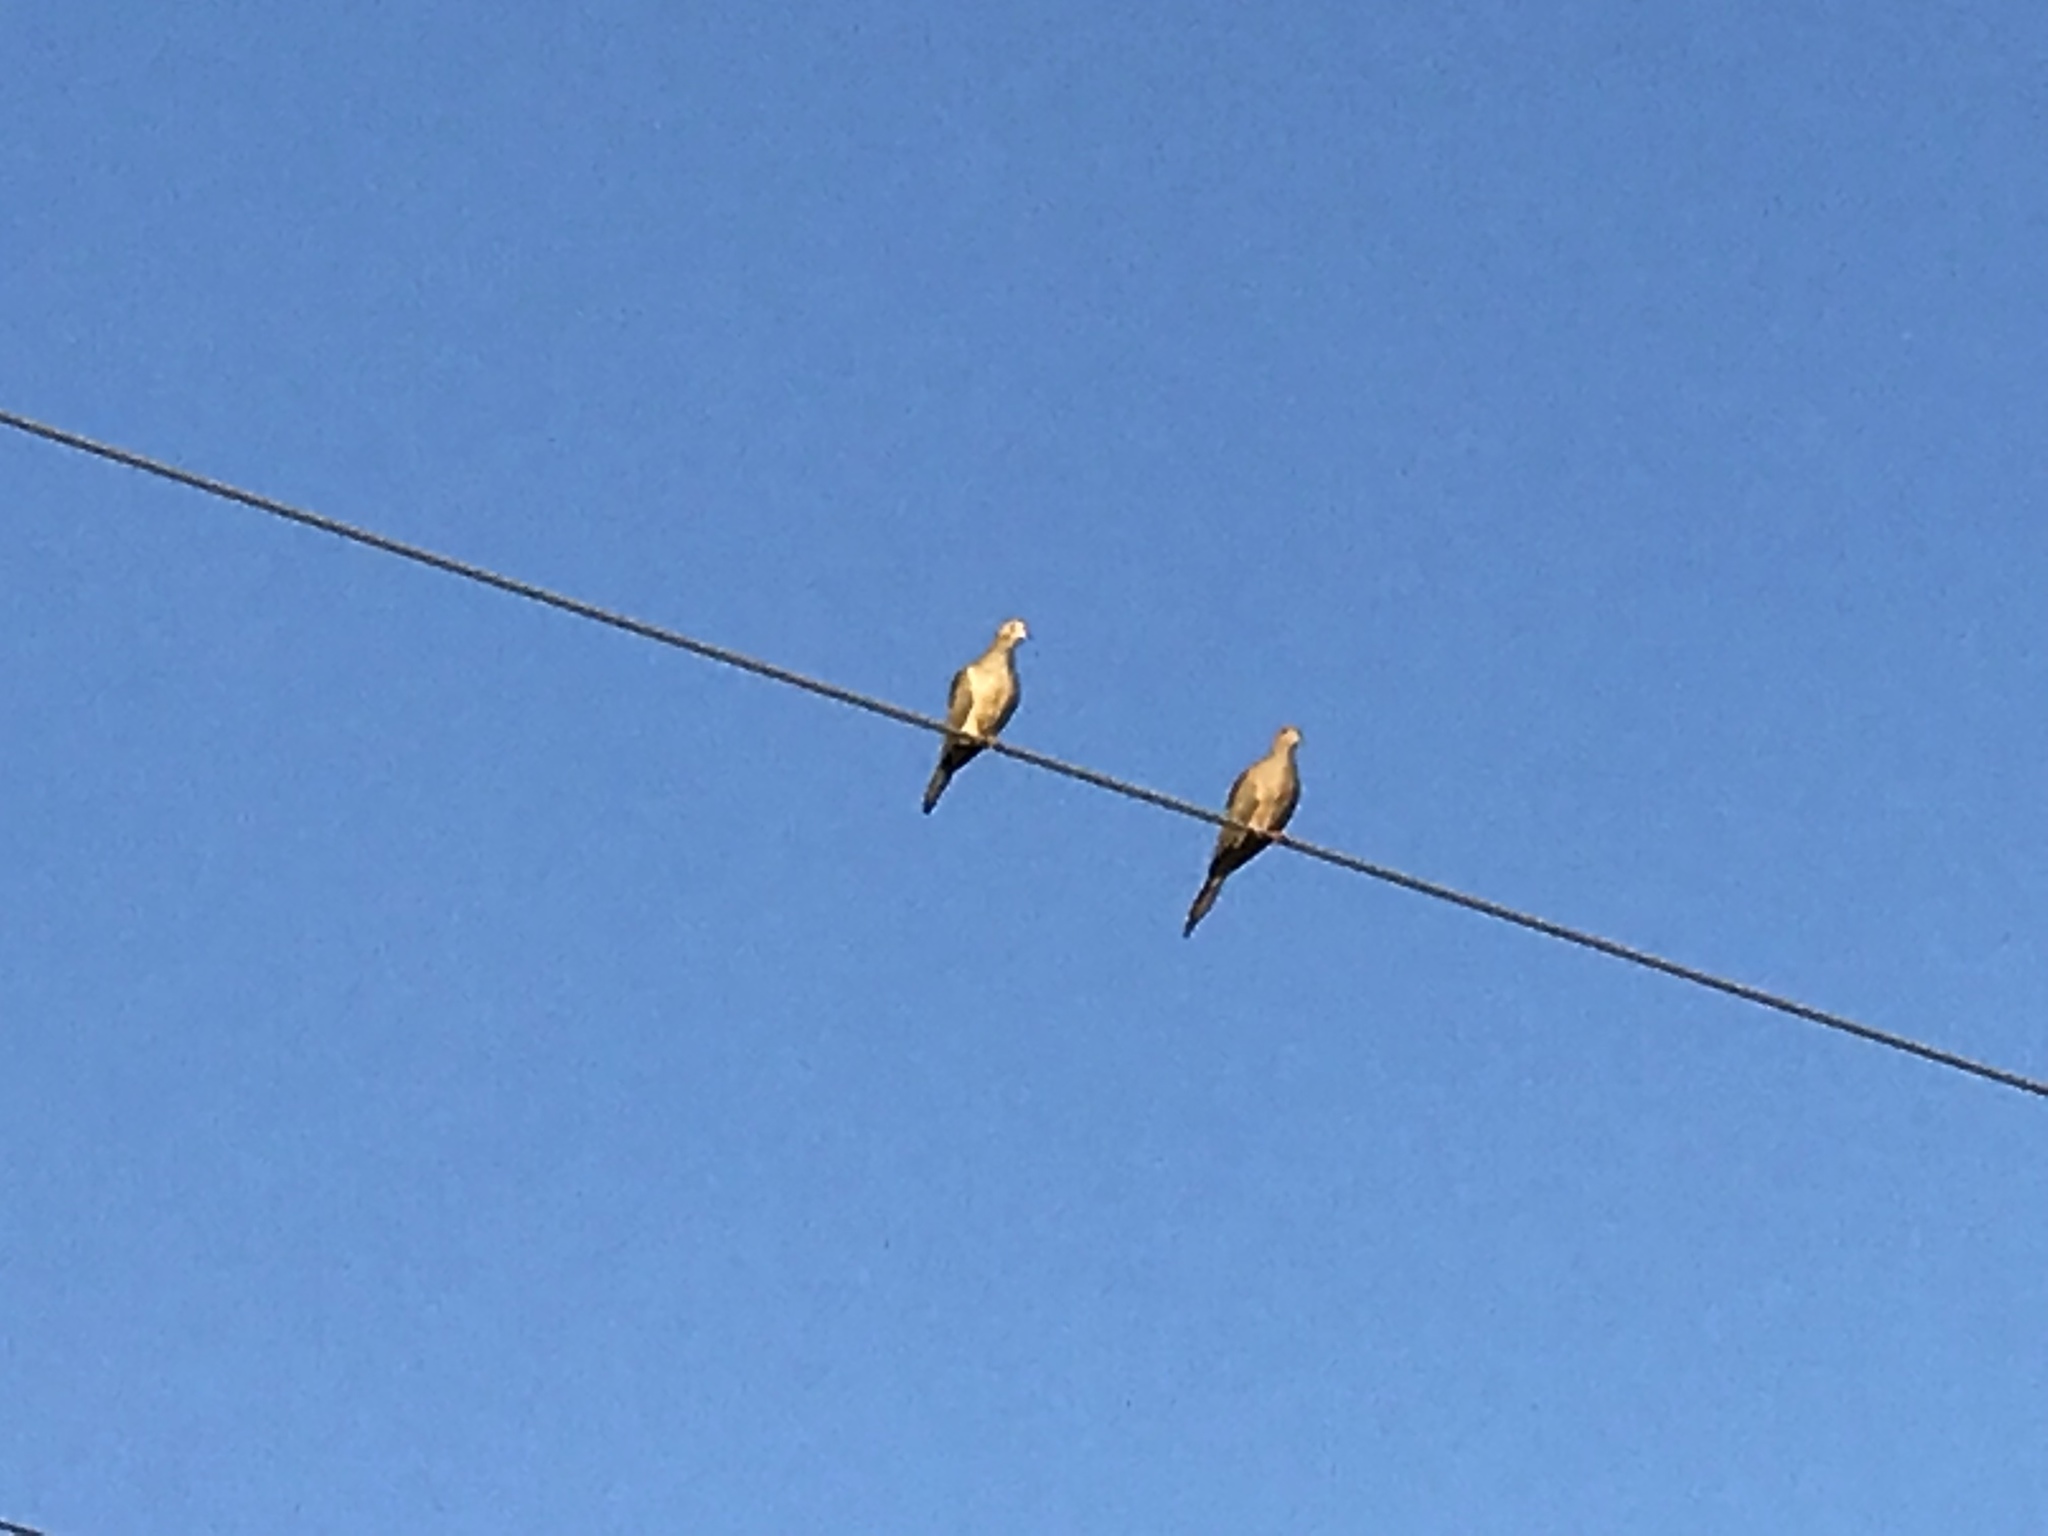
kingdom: Animalia
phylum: Chordata
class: Aves
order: Columbiformes
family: Columbidae
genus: Zenaida
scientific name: Zenaida macroura
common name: Mourning dove
